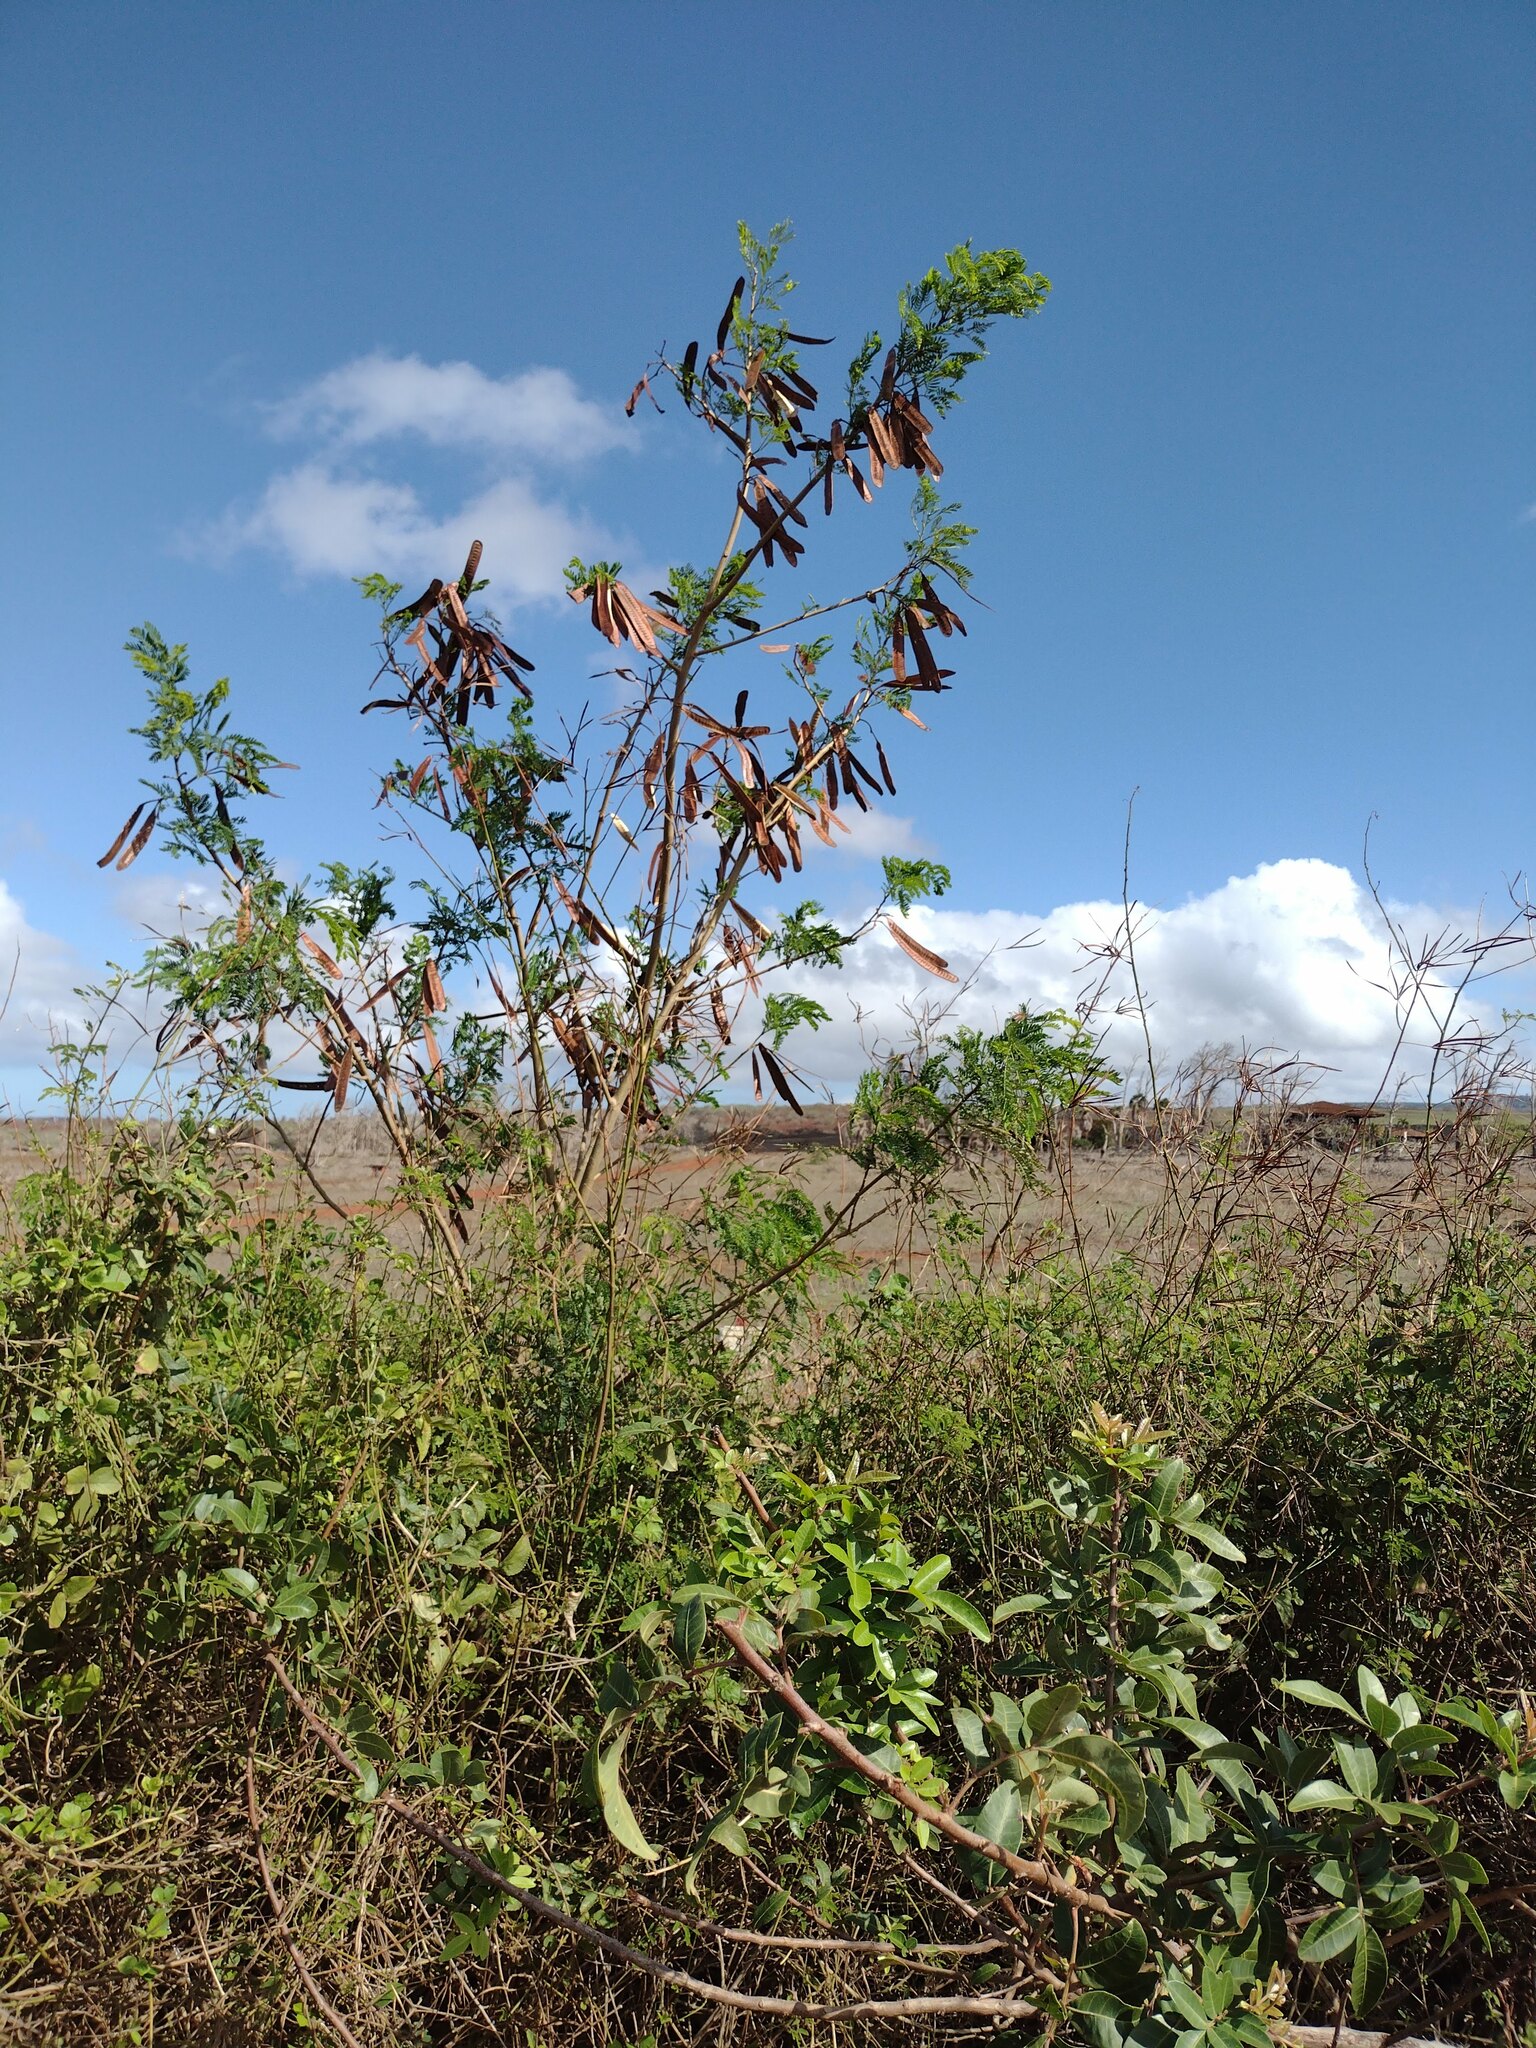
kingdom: Plantae
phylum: Tracheophyta
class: Magnoliopsida
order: Fabales
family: Fabaceae
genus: Leucaena
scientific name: Leucaena leucocephala
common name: White leadtree
